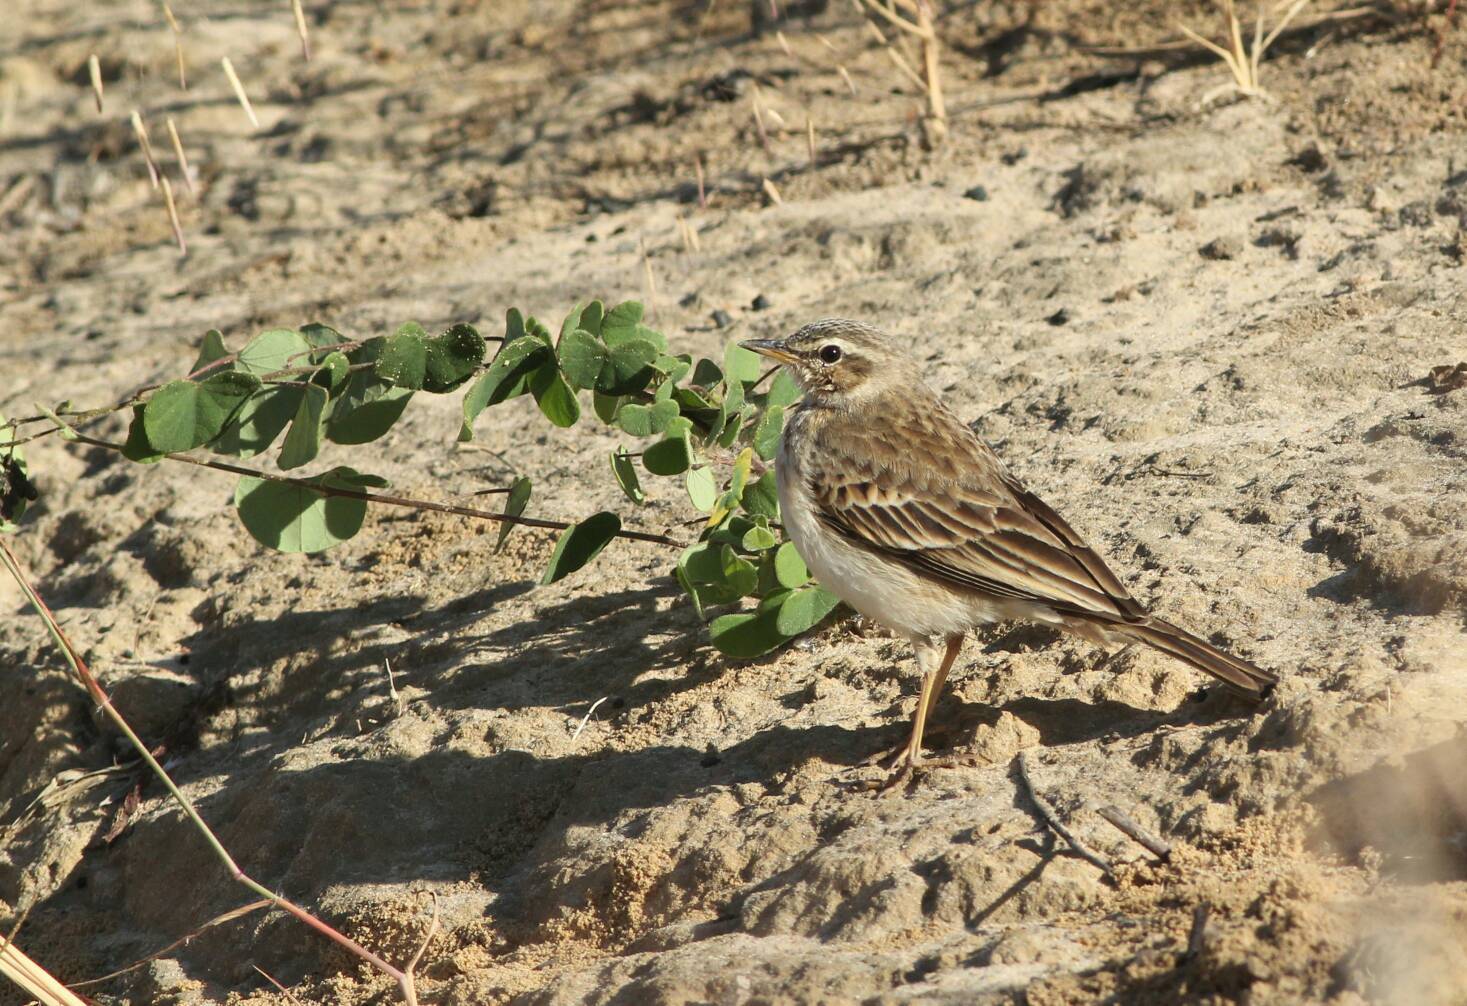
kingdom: Animalia
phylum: Chordata
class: Aves
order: Passeriformes
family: Motacillidae
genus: Anthus
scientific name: Anthus nyassae
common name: Wood pipit
